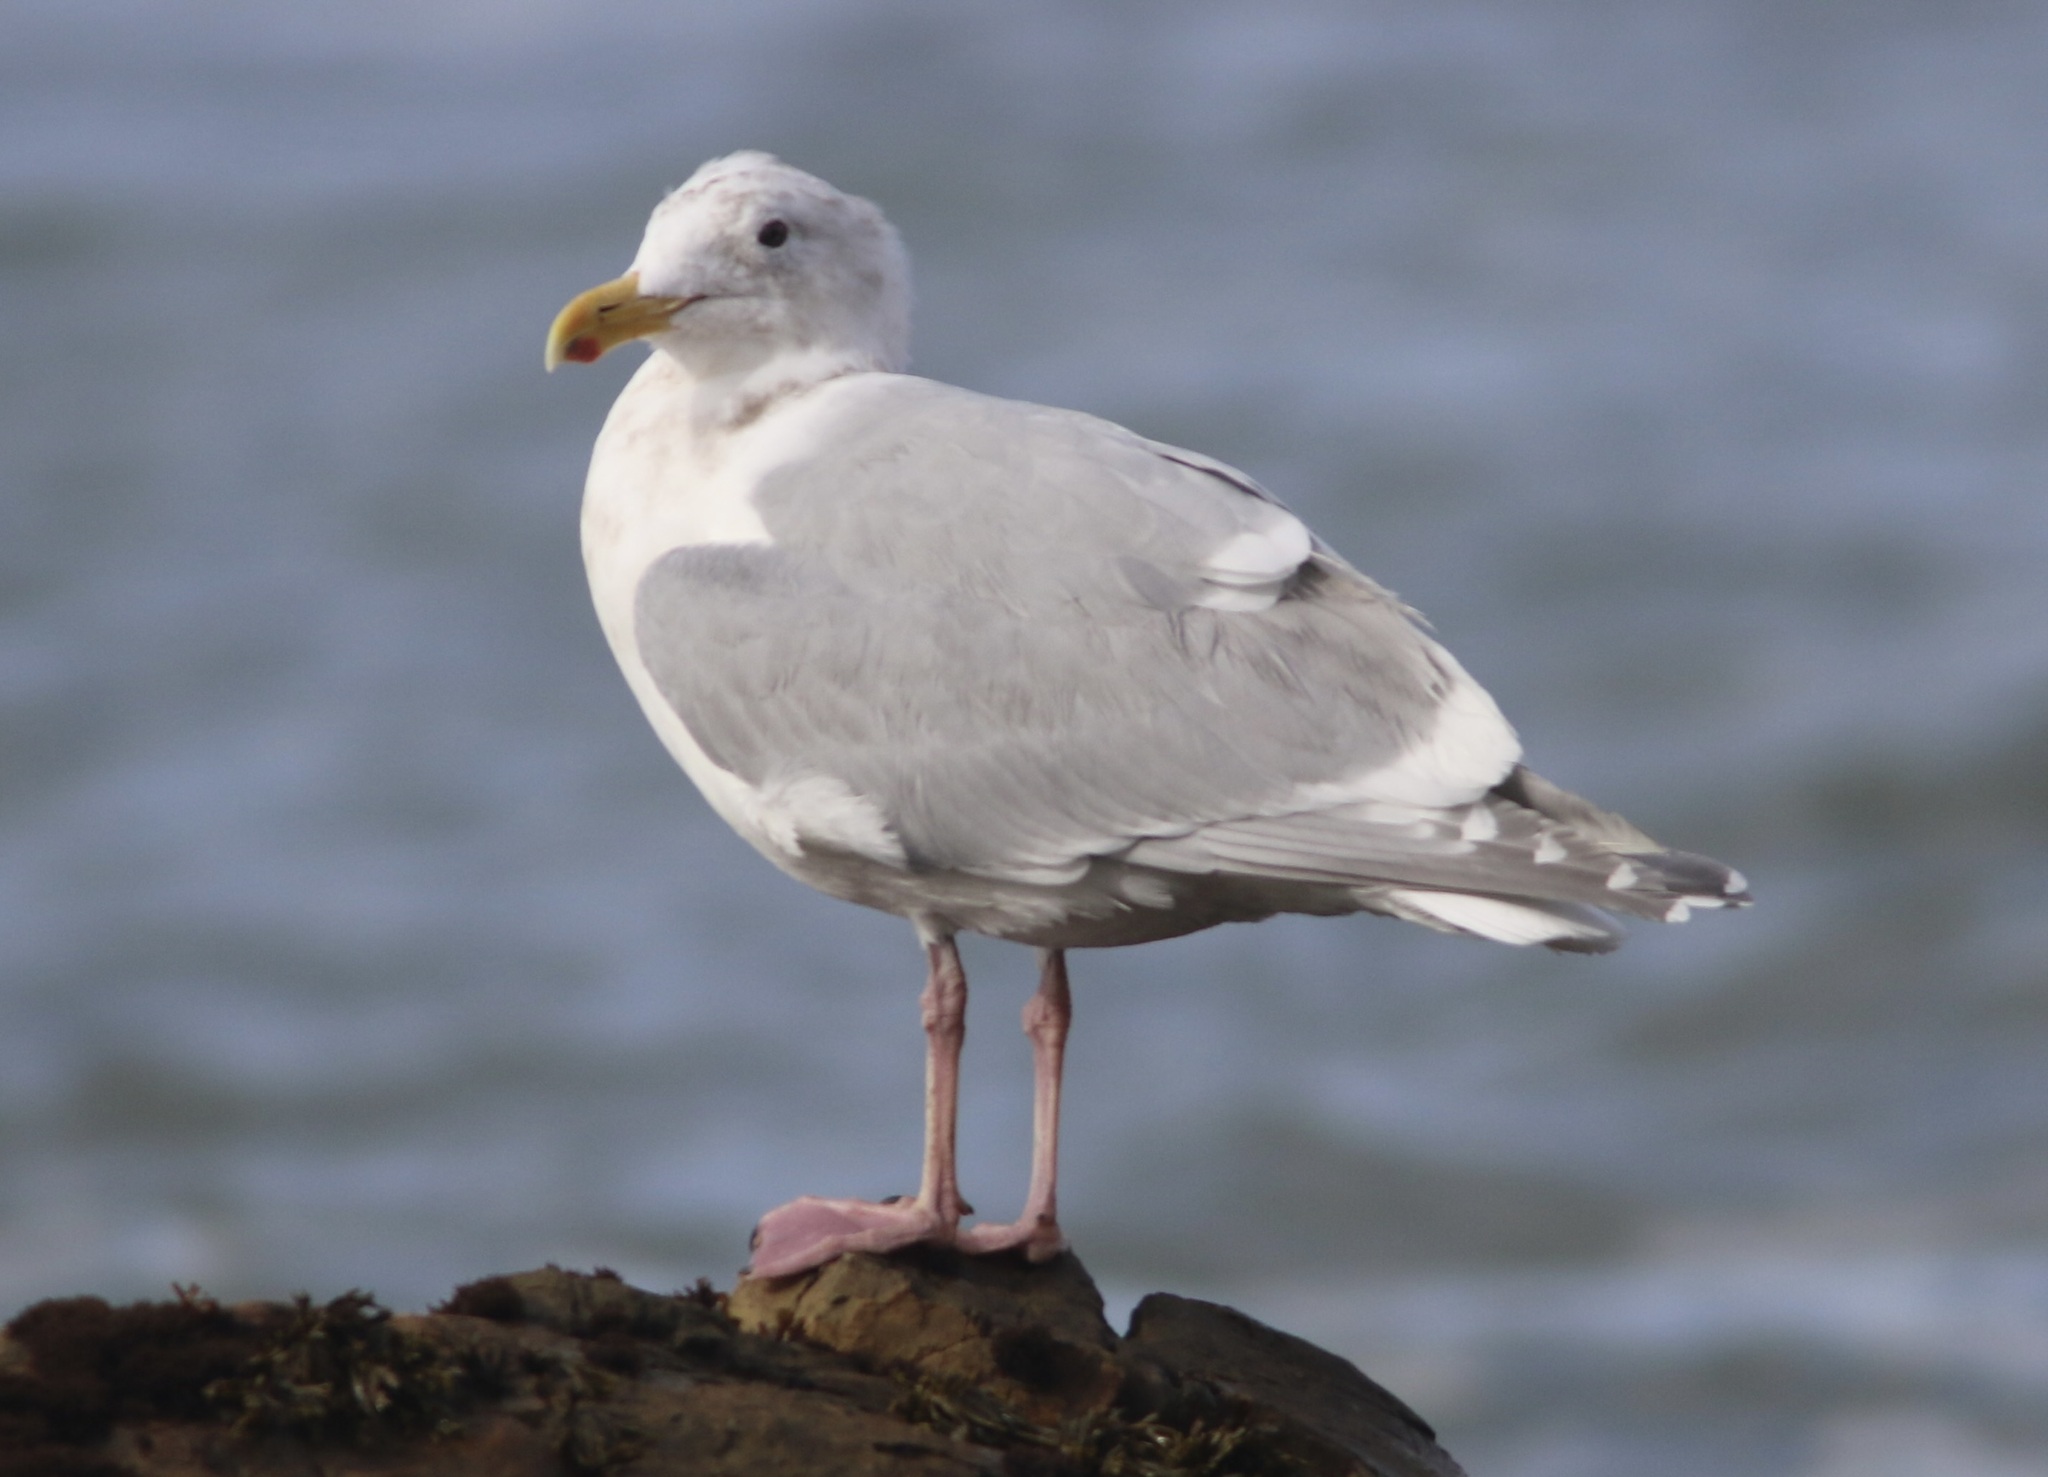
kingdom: Animalia
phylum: Chordata
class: Aves
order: Charadriiformes
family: Laridae
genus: Larus
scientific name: Larus glaucescens
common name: Glaucous-winged gull
